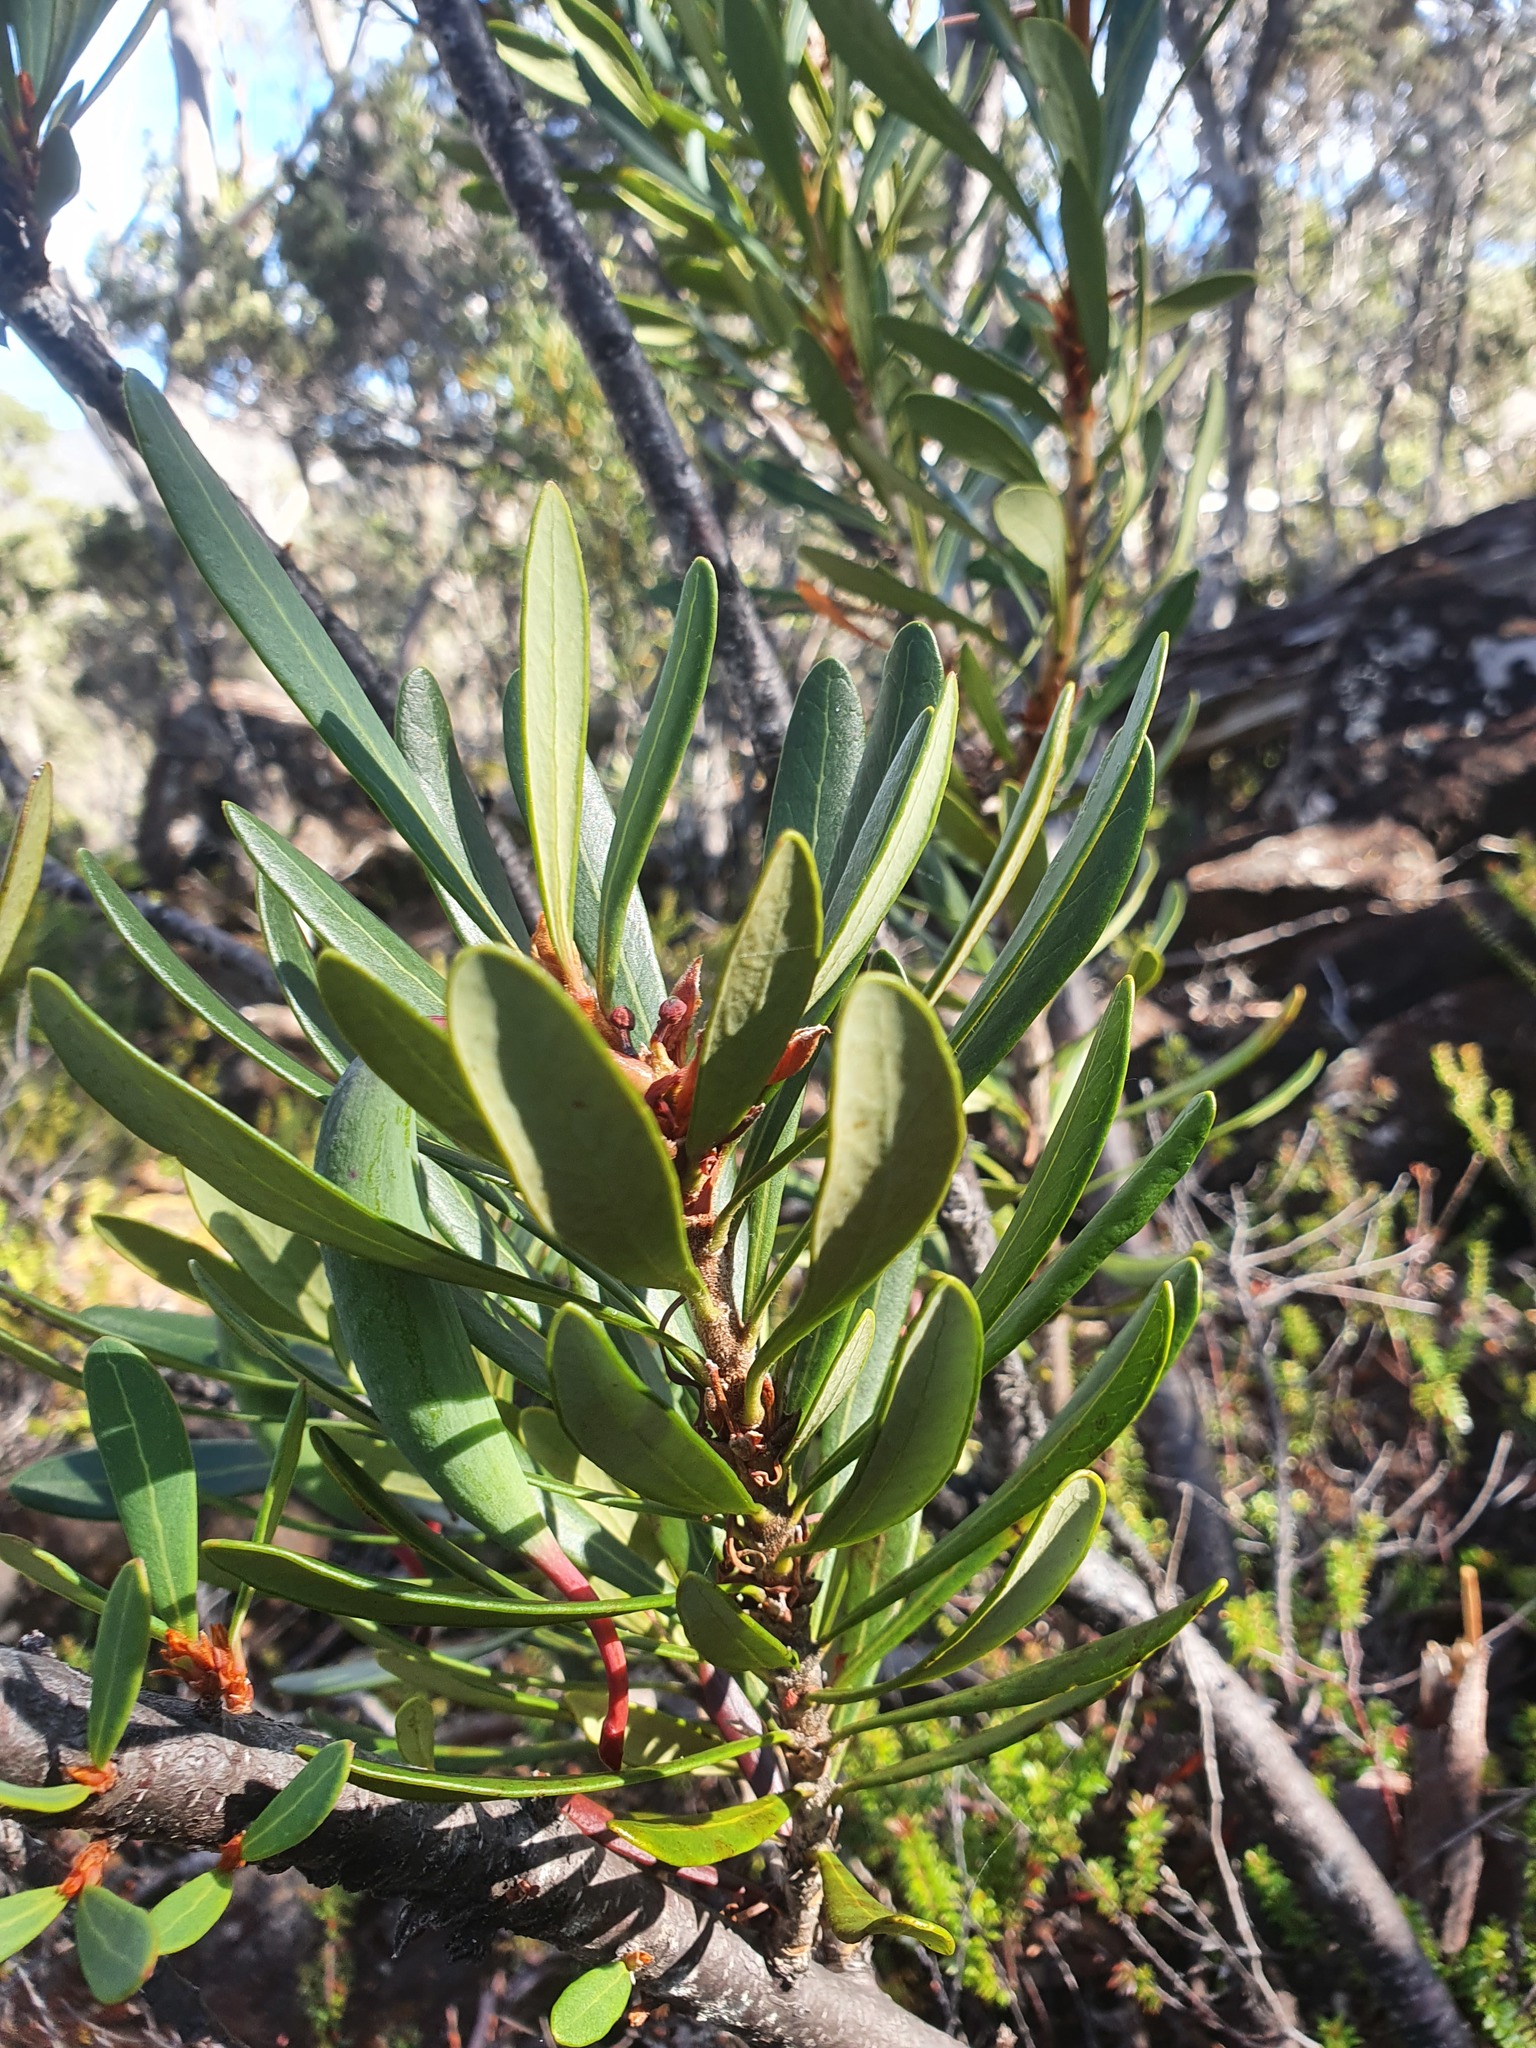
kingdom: Plantae
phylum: Tracheophyta
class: Magnoliopsida
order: Proteales
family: Proteaceae
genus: Telopea
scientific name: Telopea truncata
